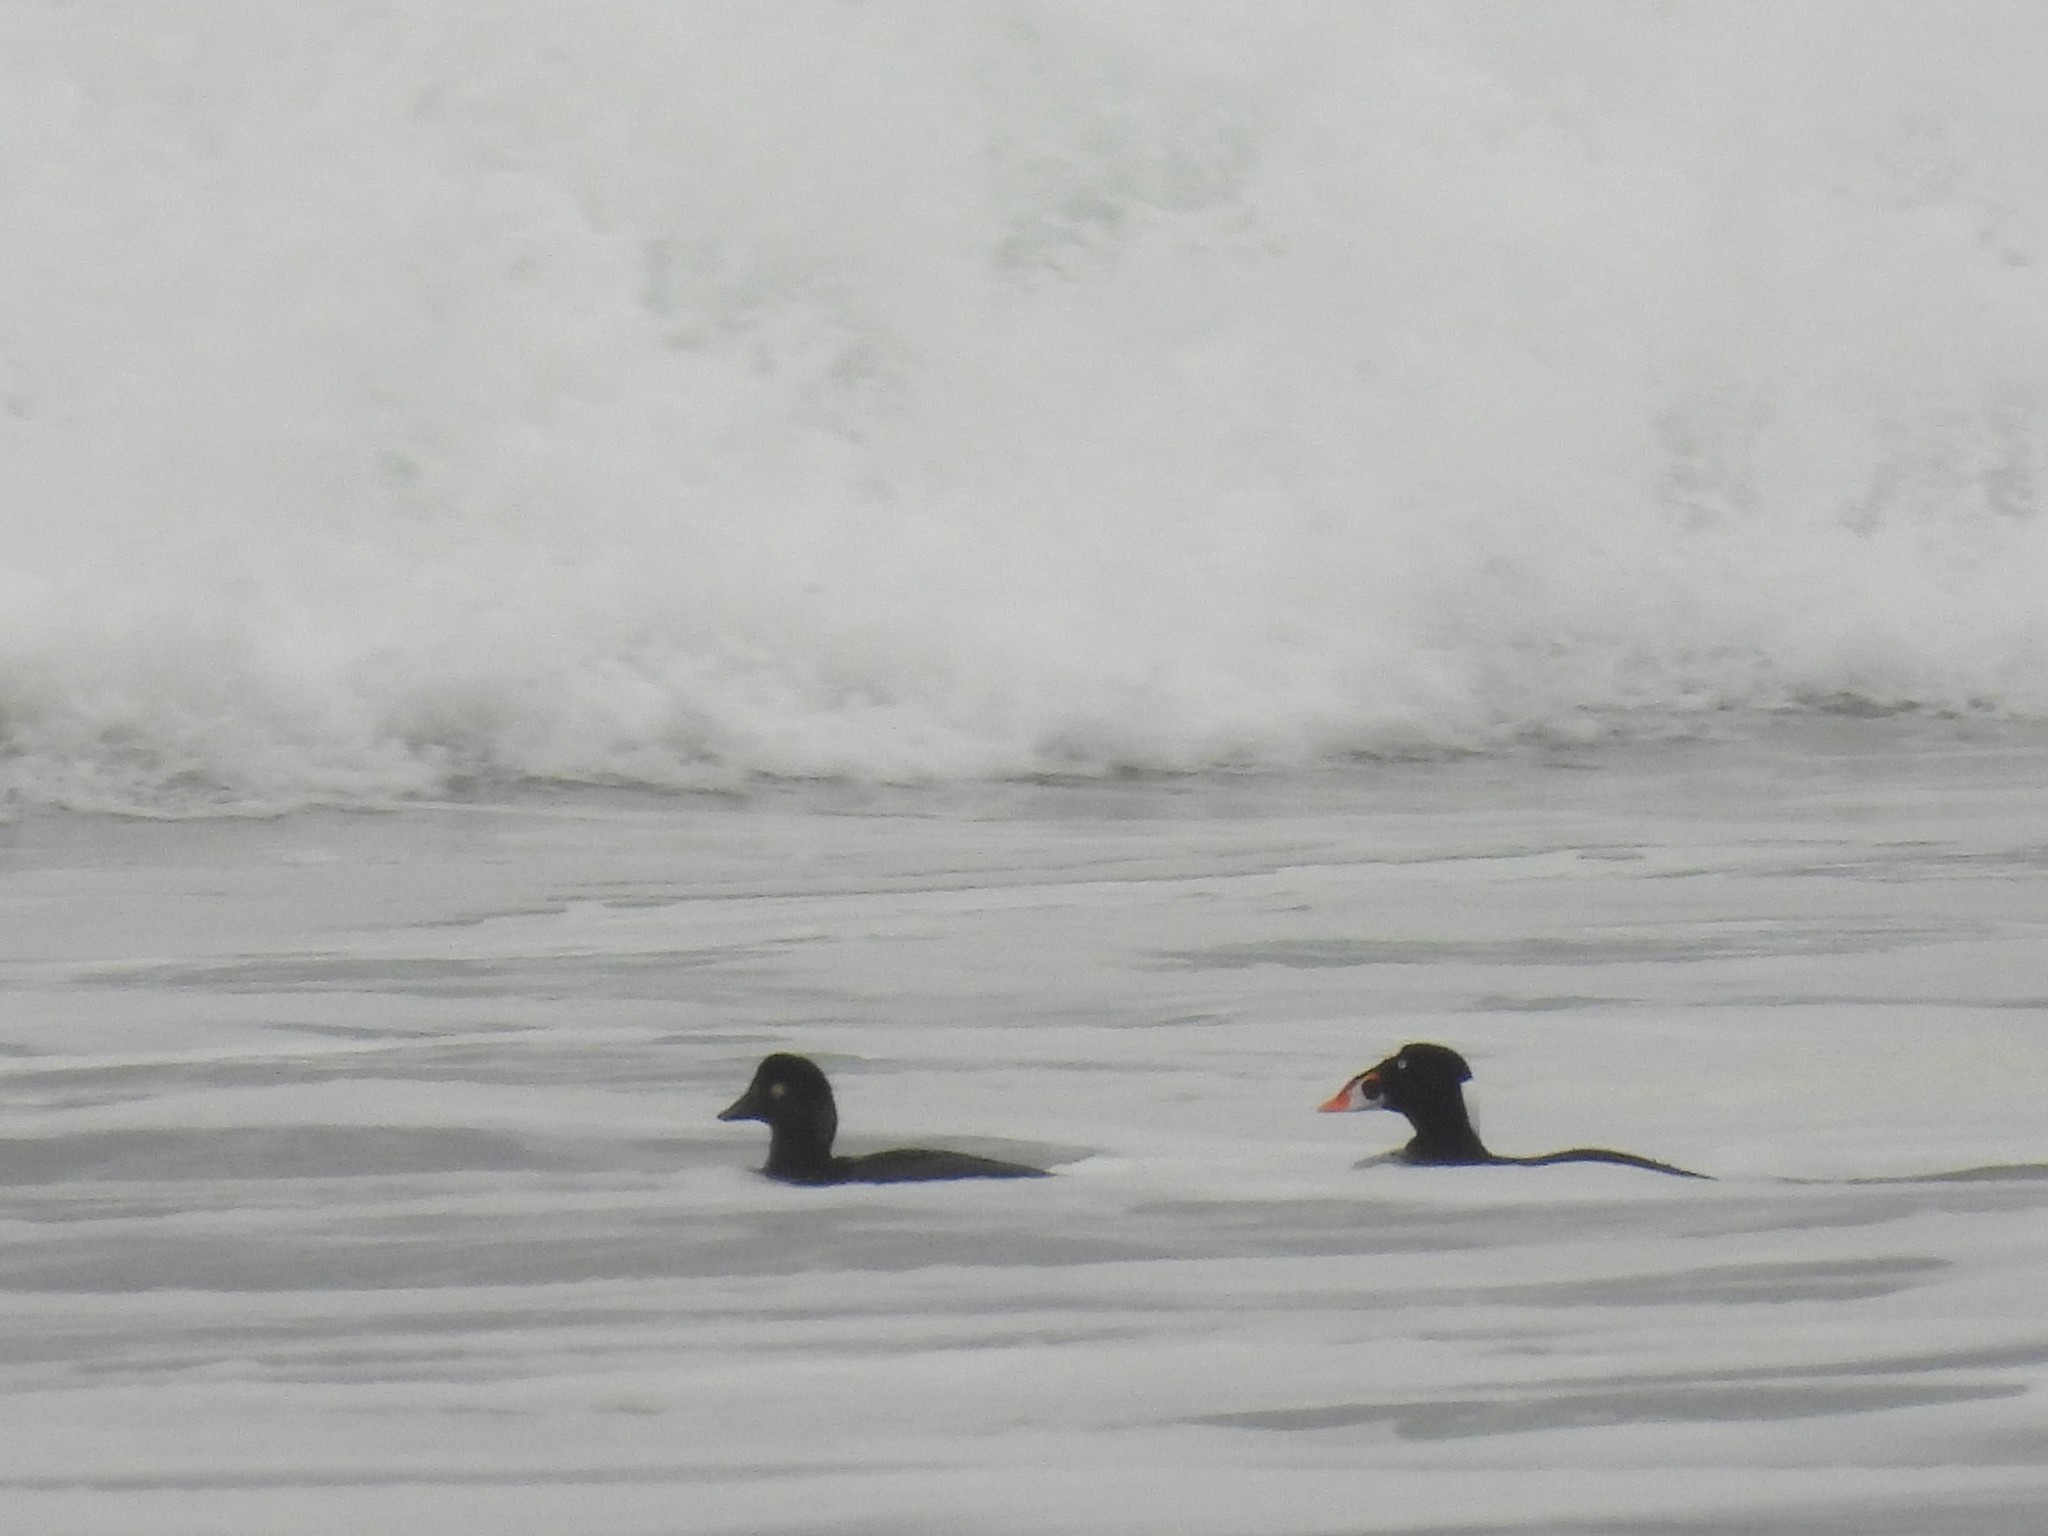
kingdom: Animalia
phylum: Chordata
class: Aves
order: Anseriformes
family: Anatidae
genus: Melanitta
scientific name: Melanitta perspicillata
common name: Surf scoter
